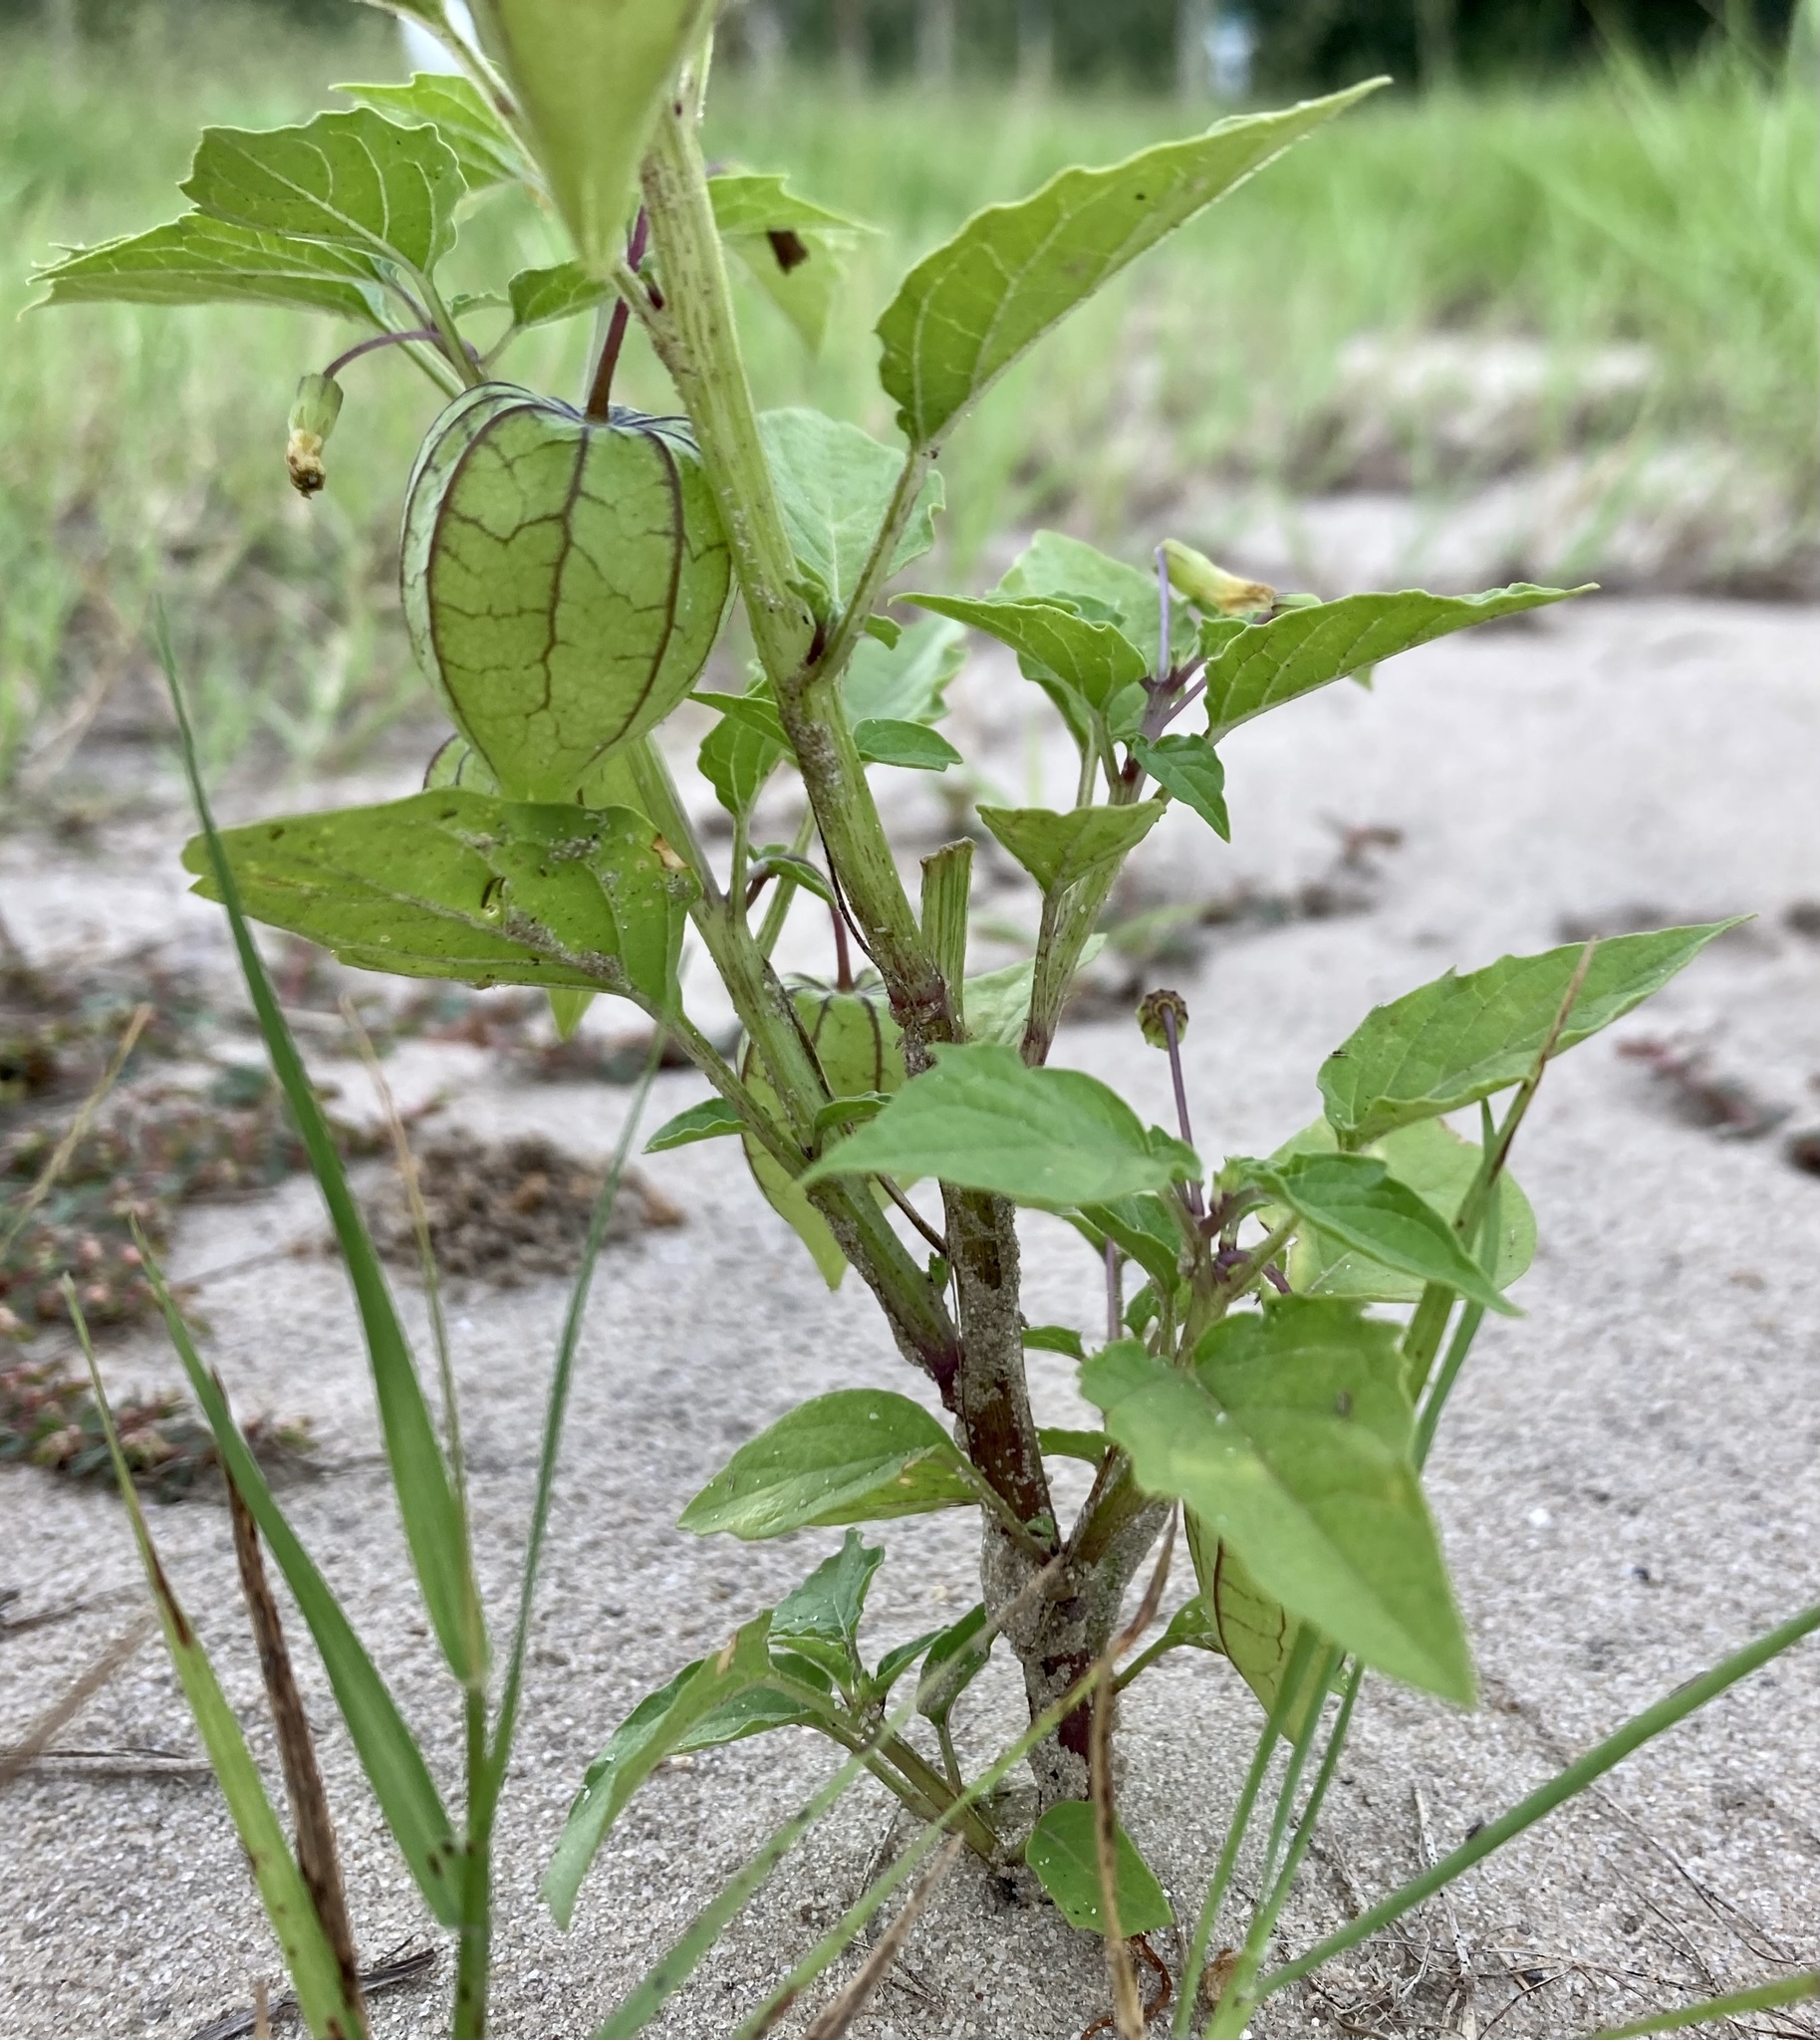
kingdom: Plantae
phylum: Tracheophyta
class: Magnoliopsida
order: Solanales
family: Solanaceae
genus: Physalis
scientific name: Physalis angulata
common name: Angular winter-cherry
